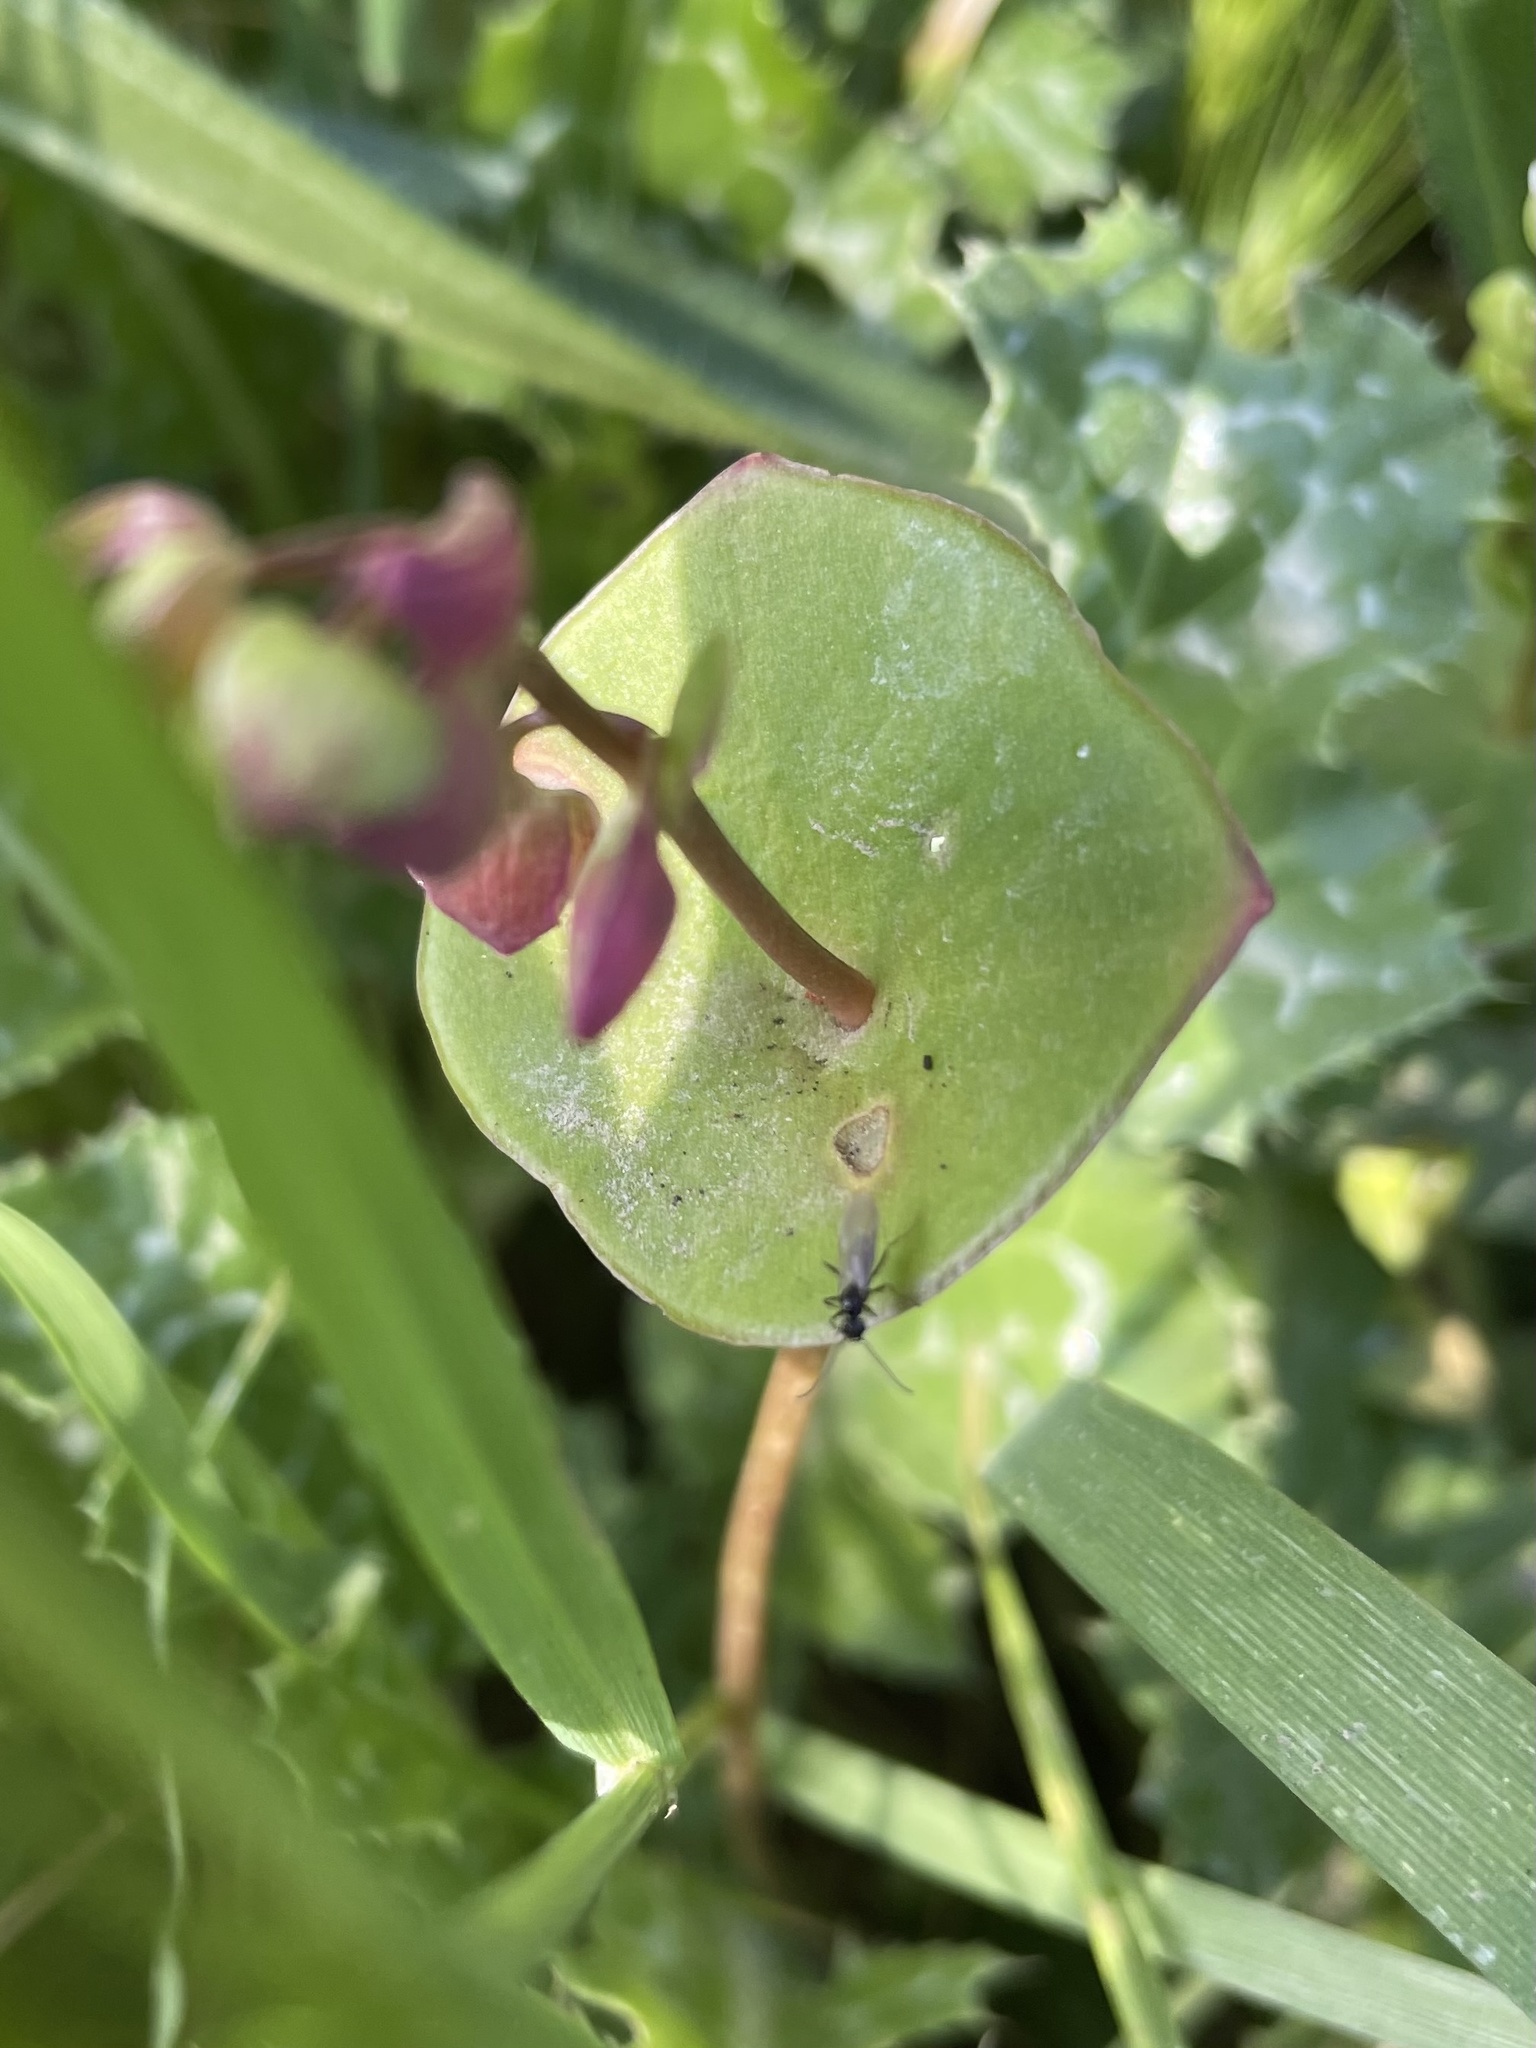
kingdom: Plantae
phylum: Tracheophyta
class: Magnoliopsida
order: Caryophyllales
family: Montiaceae
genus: Claytonia
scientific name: Claytonia perfoliata
